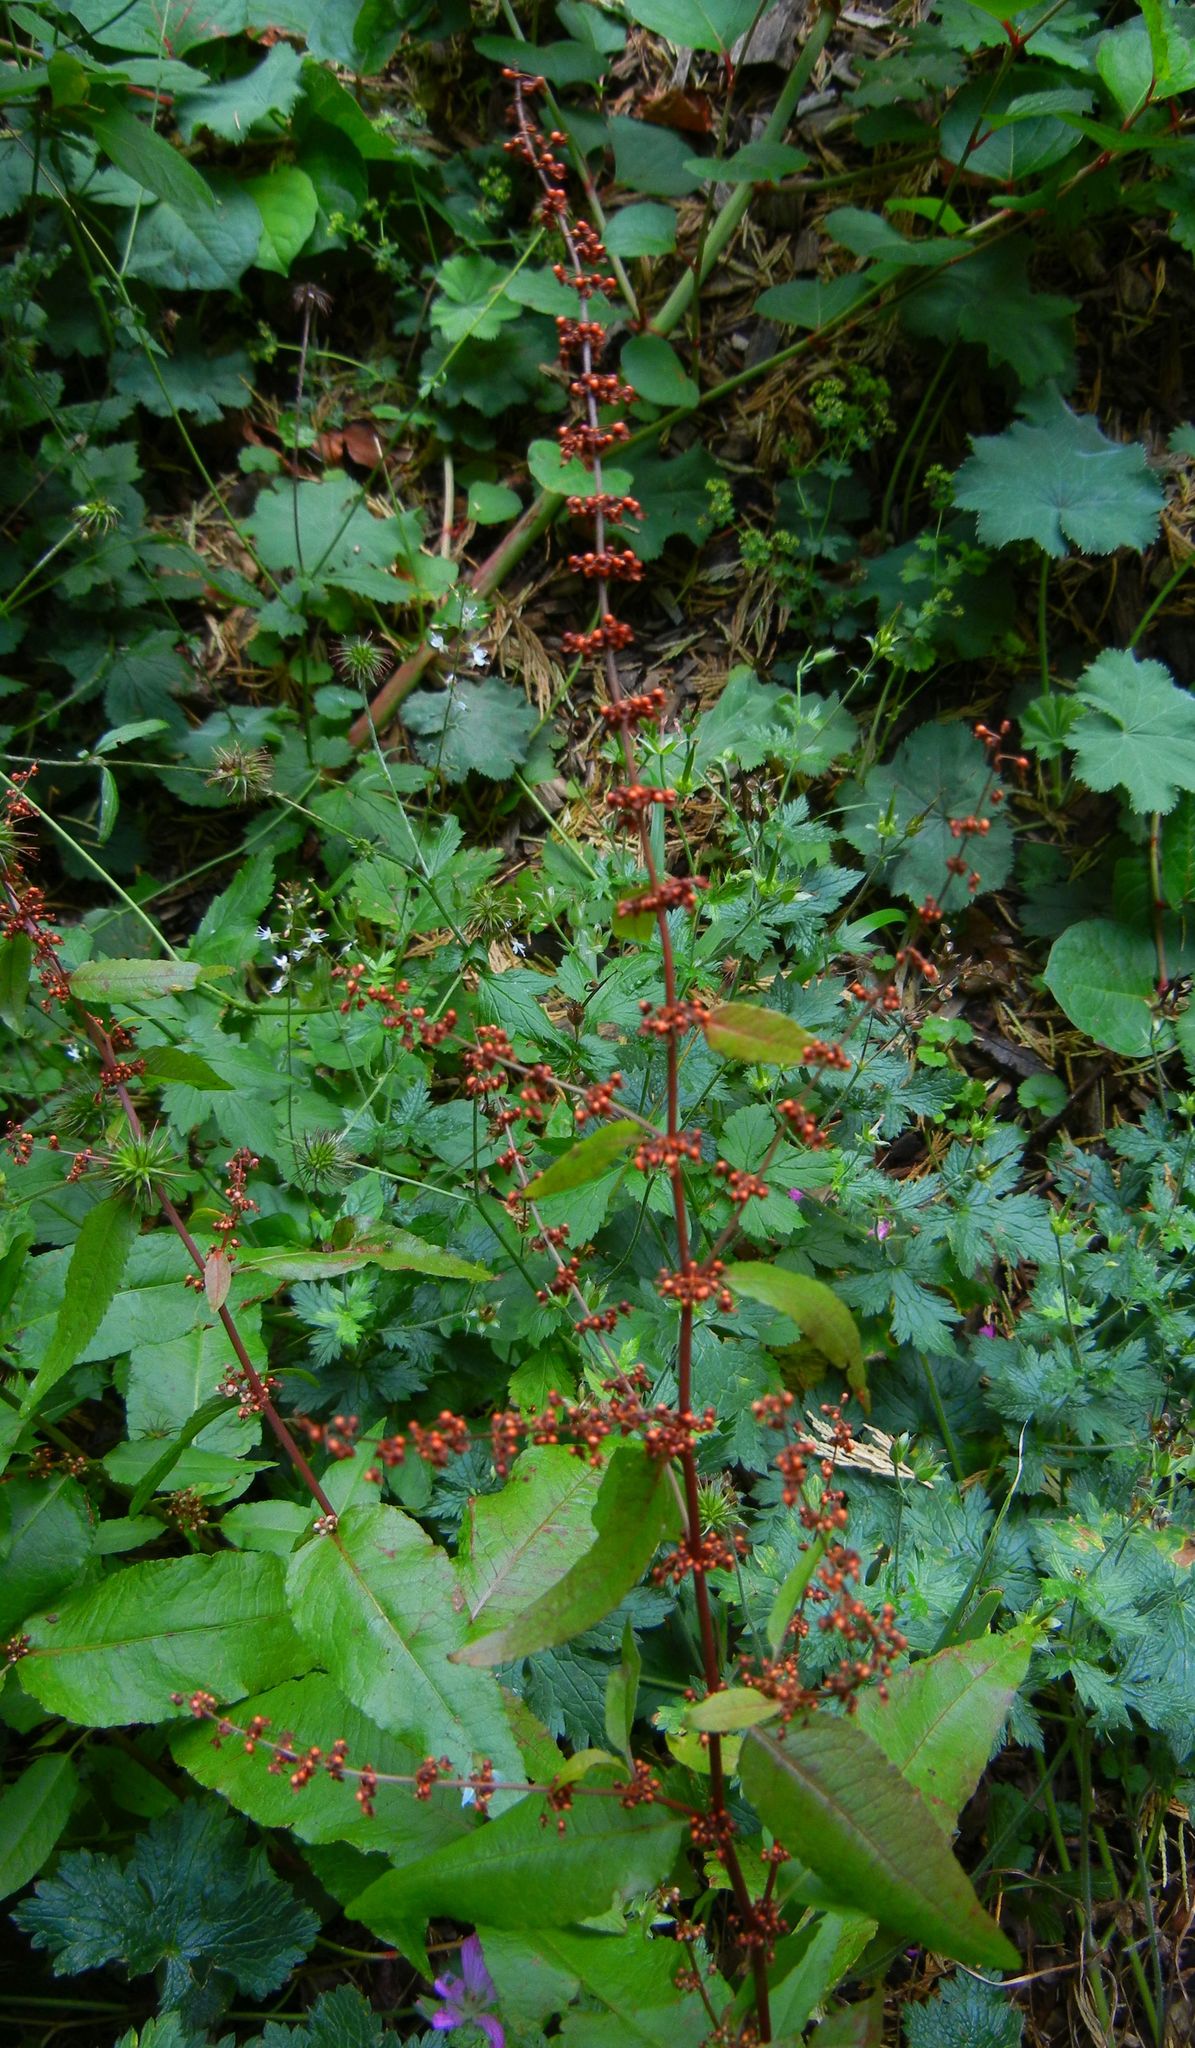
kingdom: Plantae
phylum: Tracheophyta
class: Magnoliopsida
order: Caryophyllales
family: Polygonaceae
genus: Rumex
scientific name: Rumex sanguineus
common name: Wood dock
